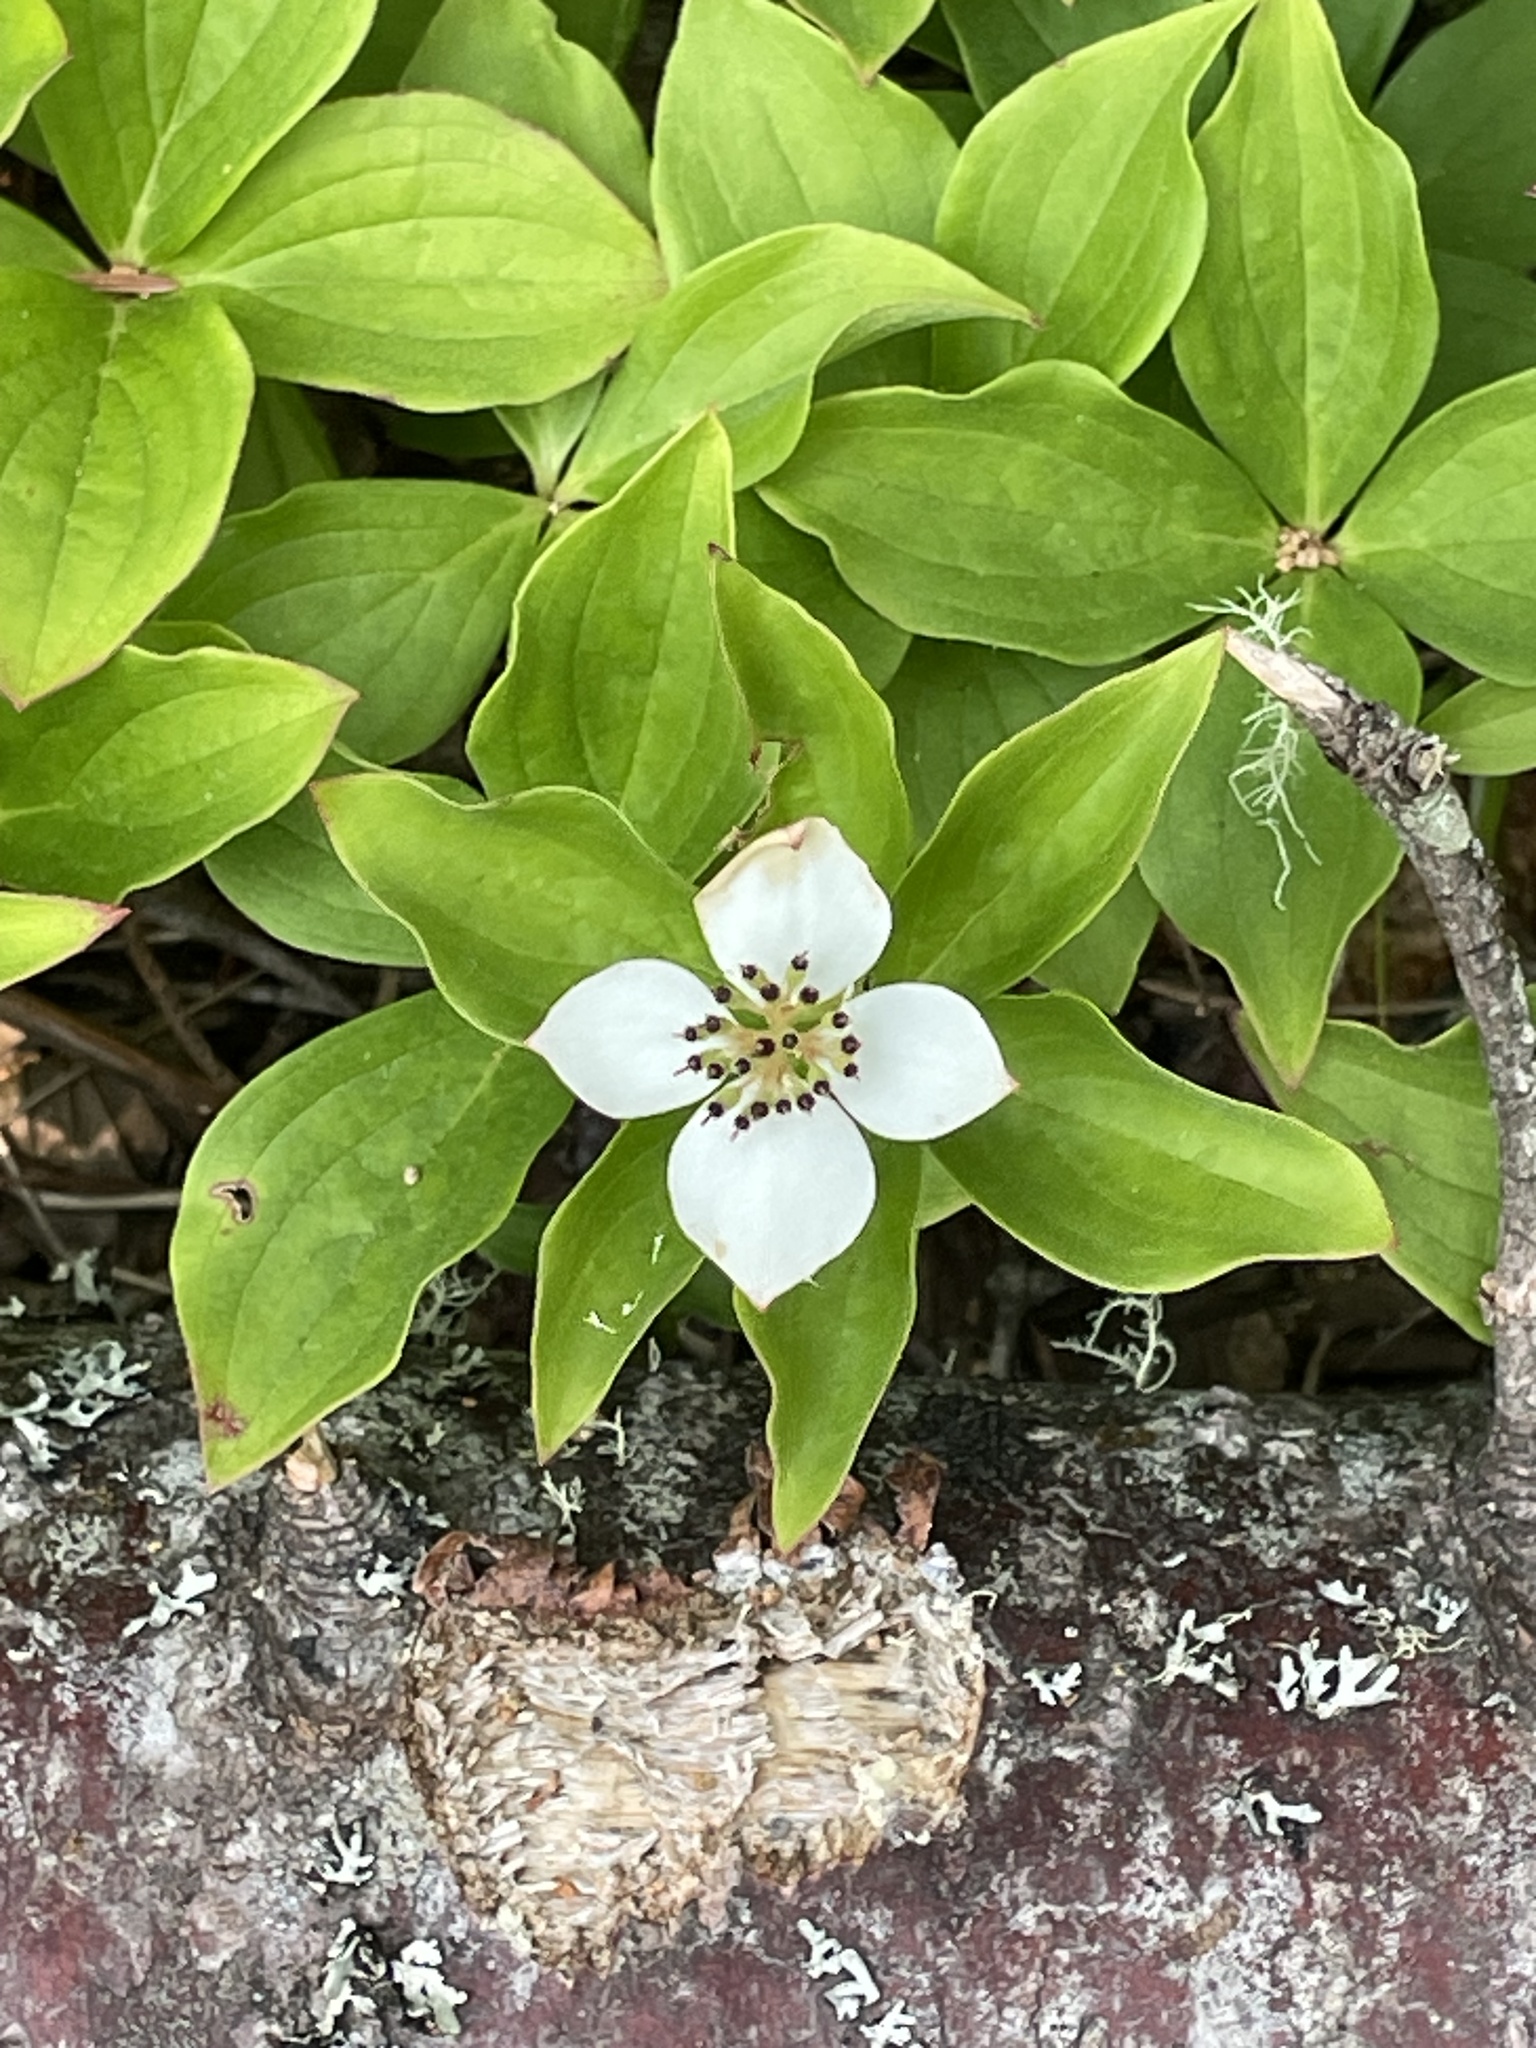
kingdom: Plantae
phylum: Tracheophyta
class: Magnoliopsida
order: Cornales
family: Cornaceae
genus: Cornus
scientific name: Cornus canadensis
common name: Creeping dogwood
